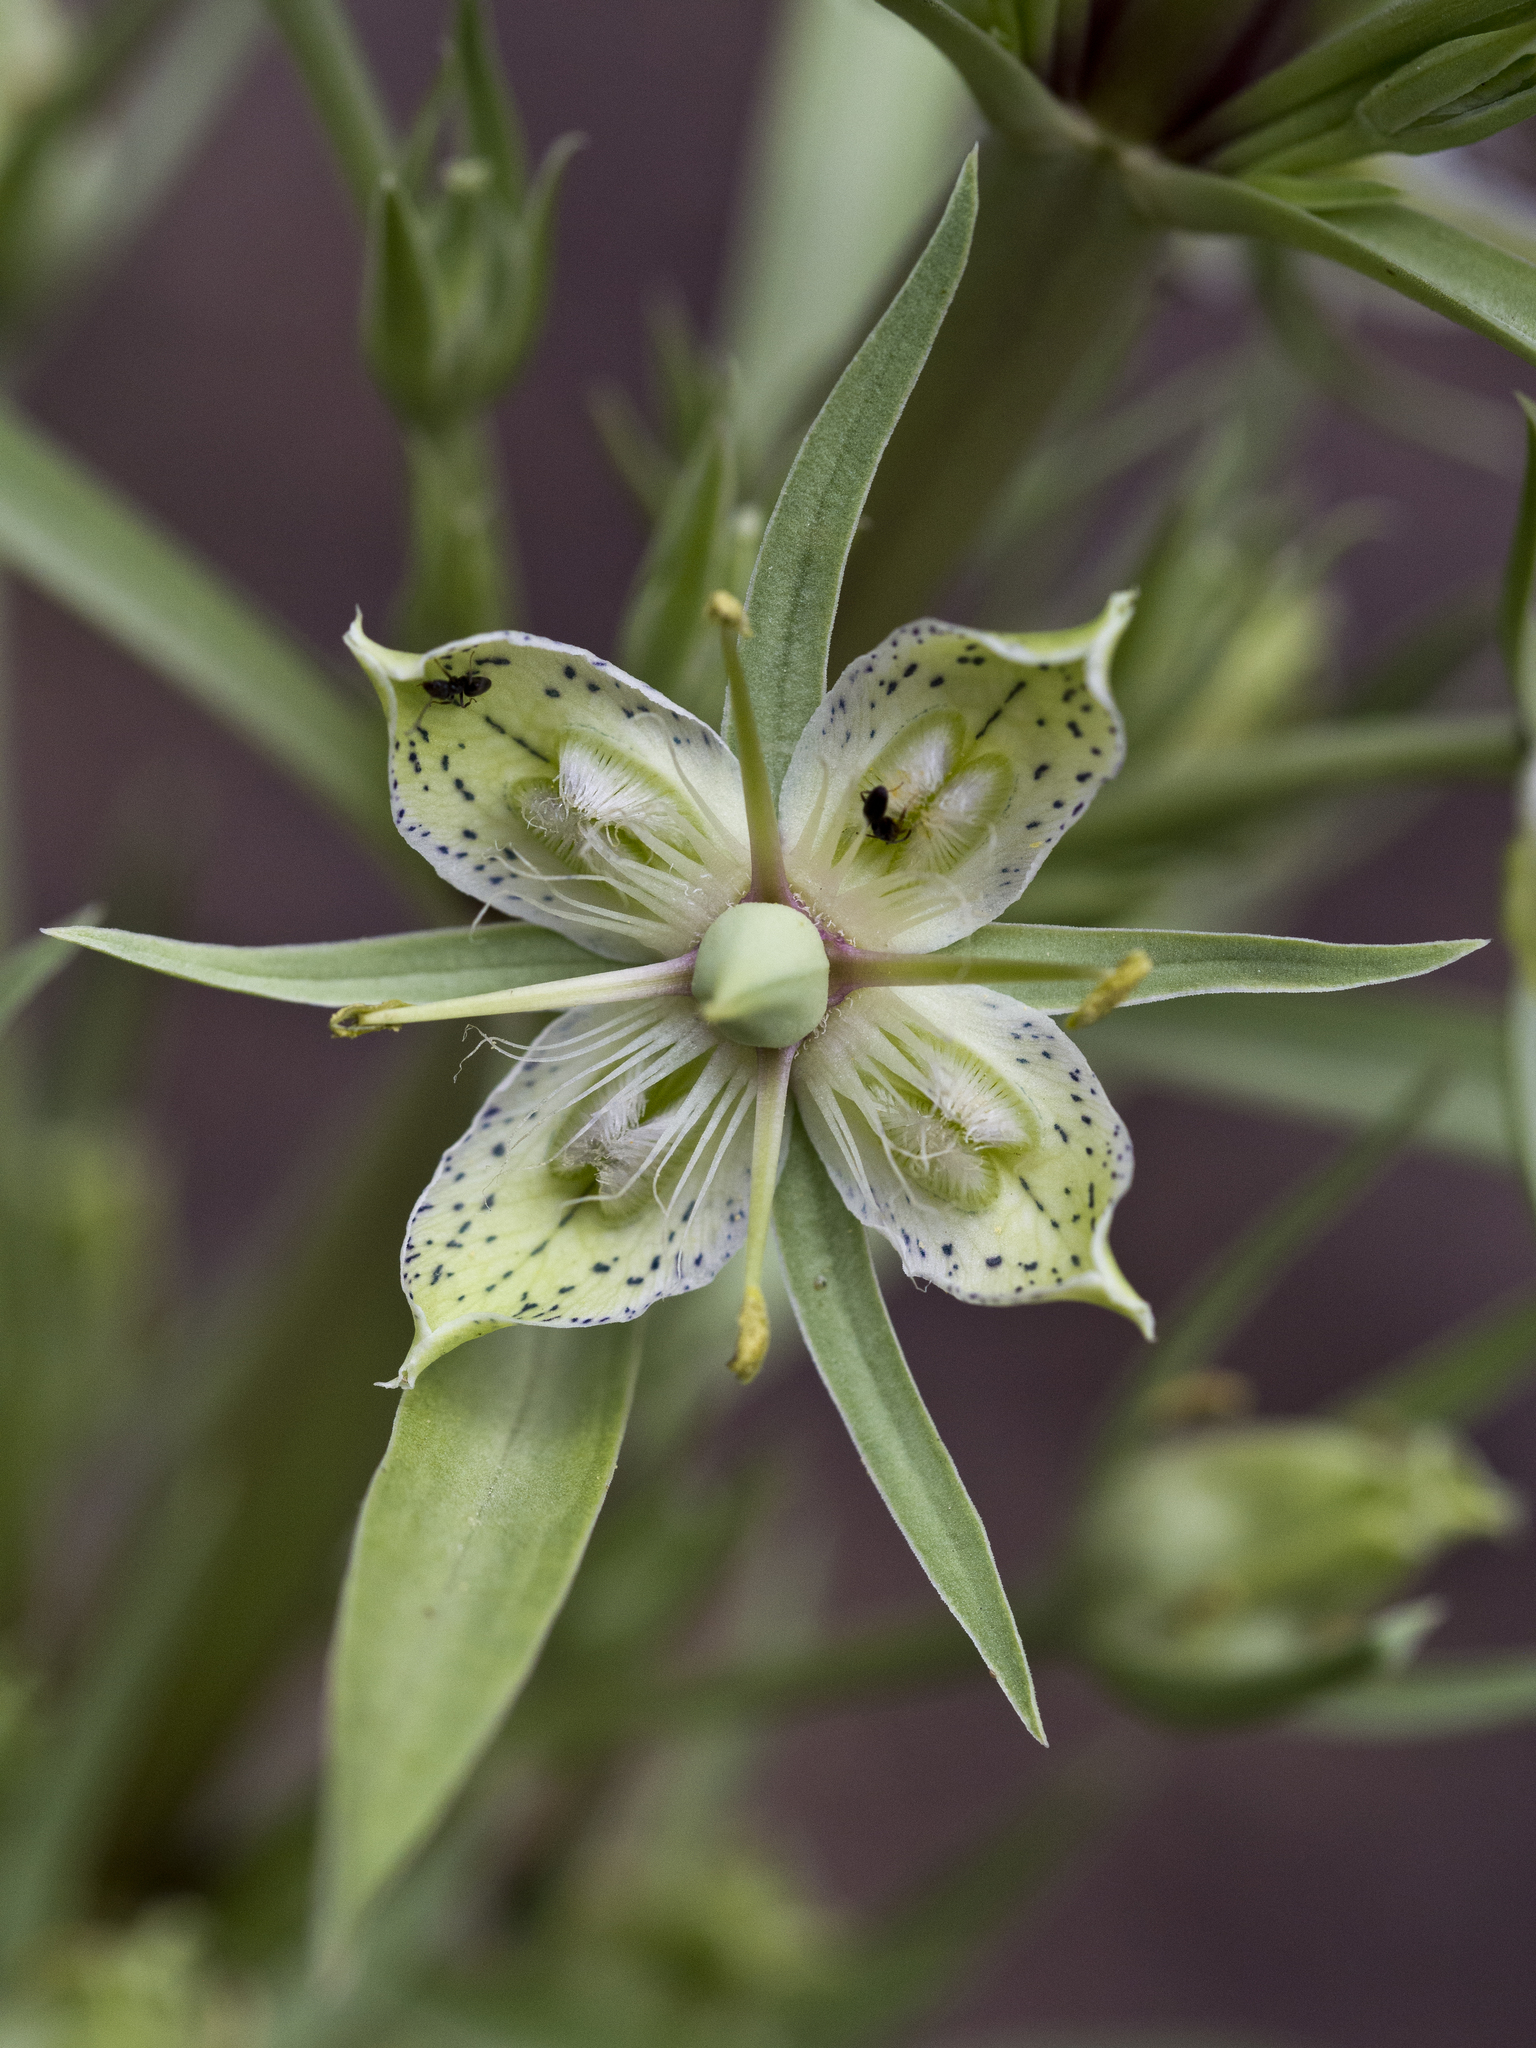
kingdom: Plantae
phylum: Tracheophyta
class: Magnoliopsida
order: Gentianales
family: Gentianaceae
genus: Frasera
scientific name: Frasera speciosa
